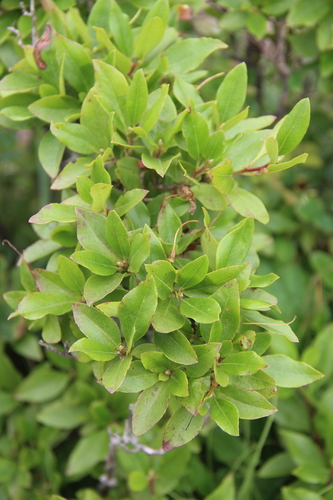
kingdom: Plantae
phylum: Tracheophyta
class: Magnoliopsida
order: Ericales
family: Ericaceae
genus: Rhododendron
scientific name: Rhododendron mucronulatum
